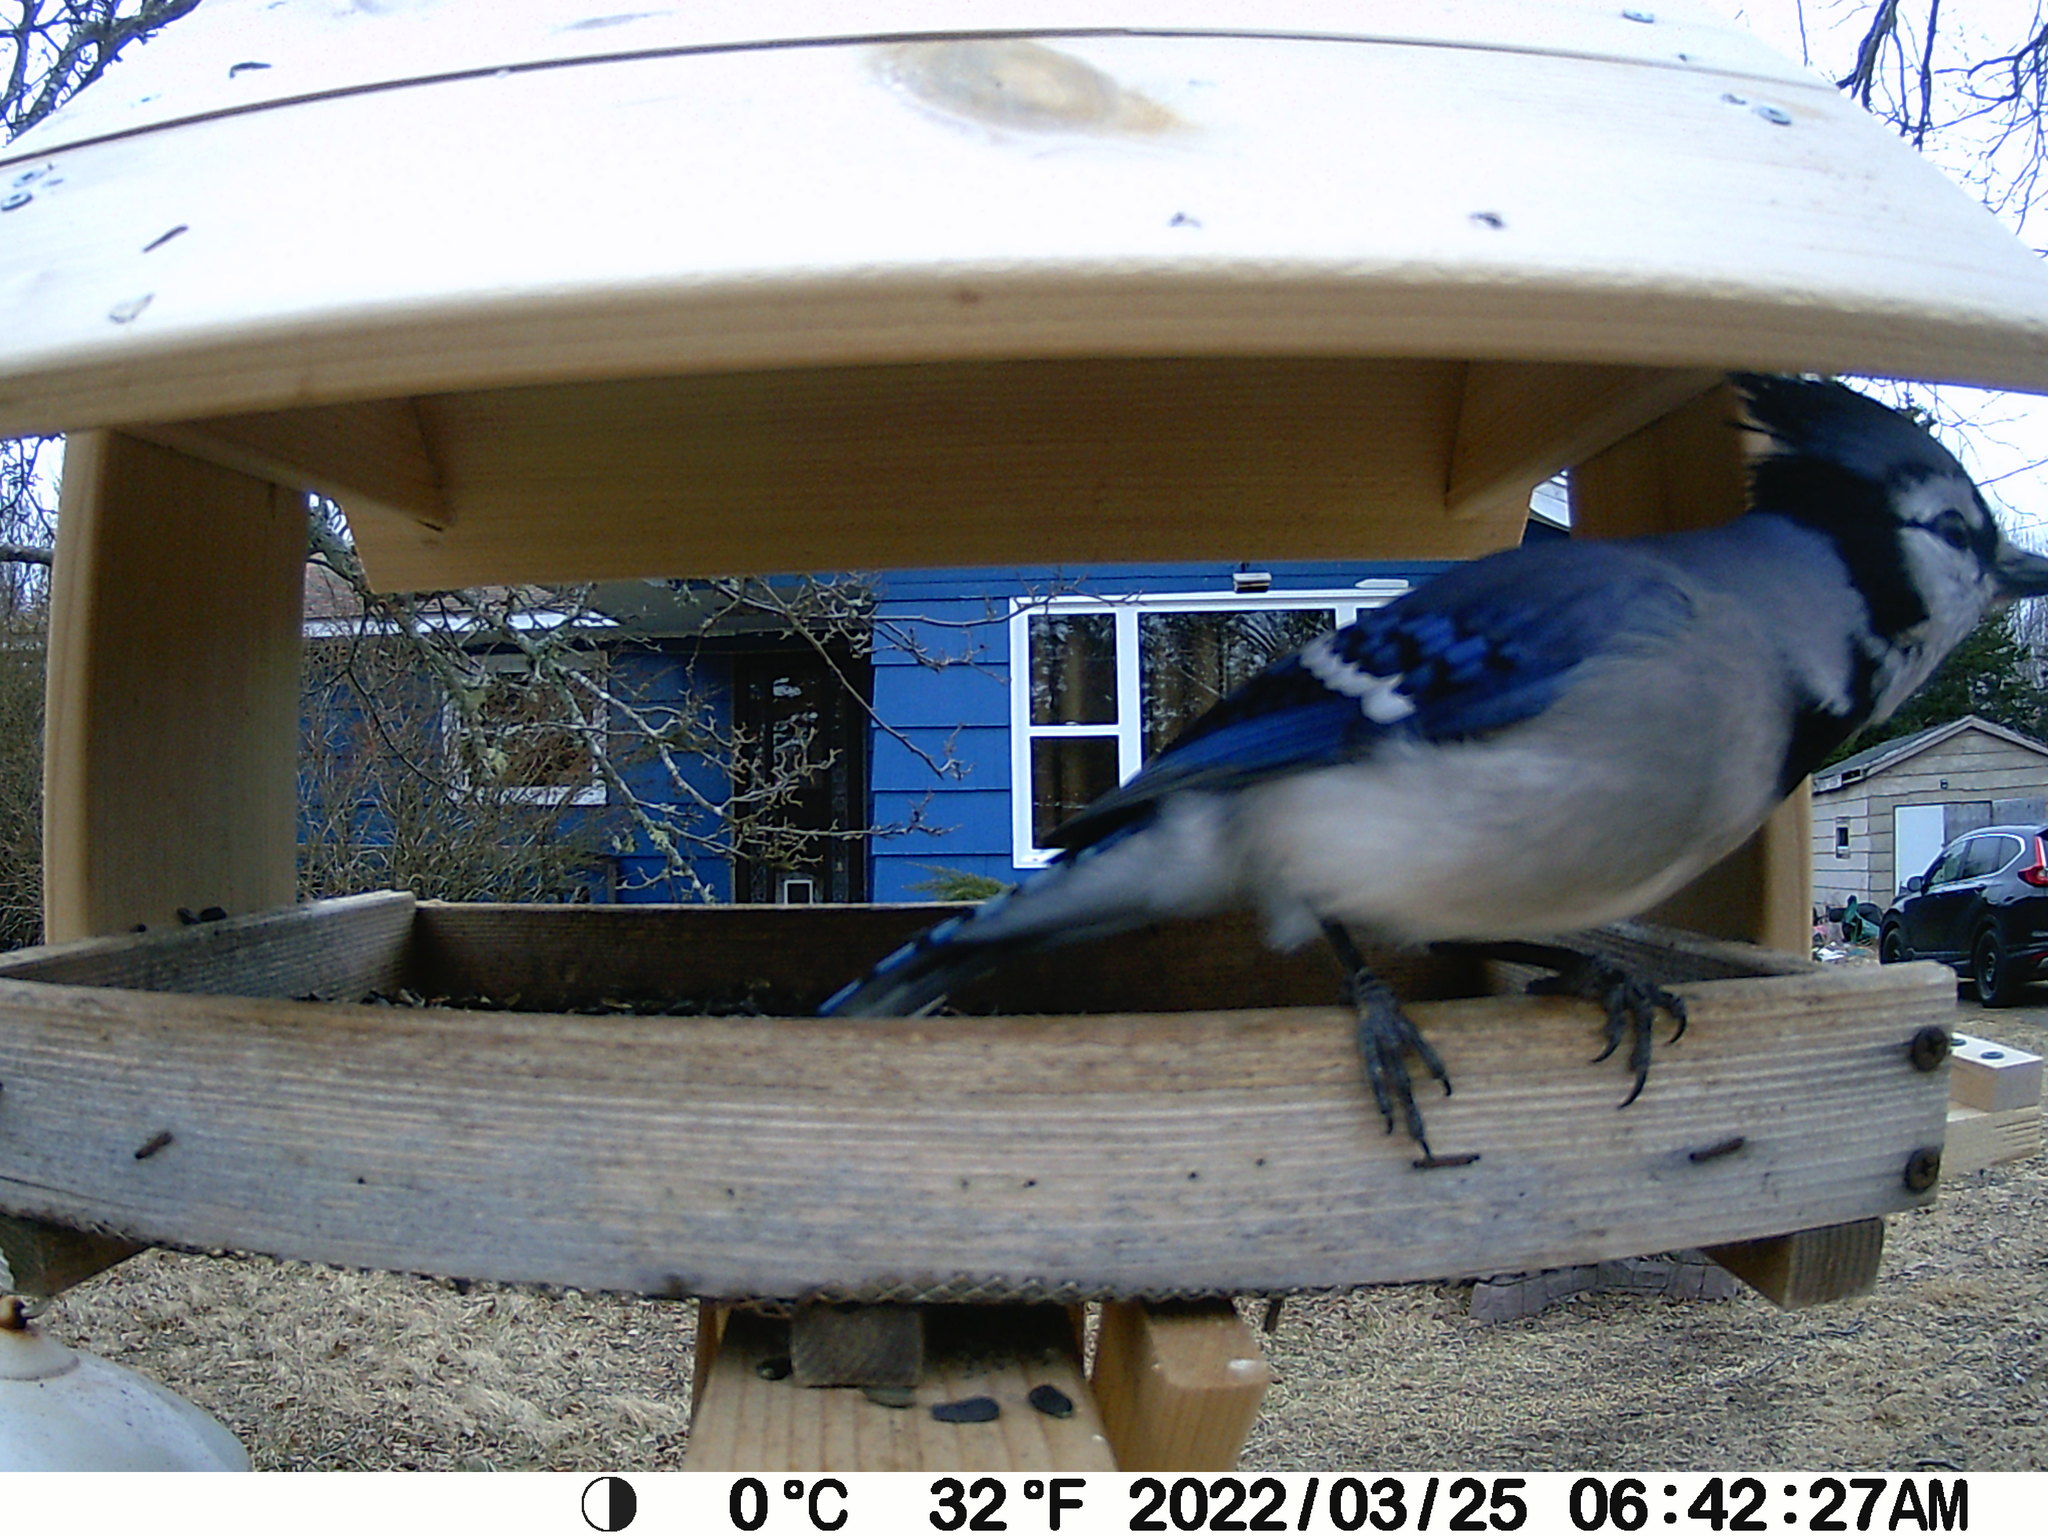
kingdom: Animalia
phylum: Chordata
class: Aves
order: Passeriformes
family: Corvidae
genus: Cyanocitta
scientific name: Cyanocitta cristata
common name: Blue jay
